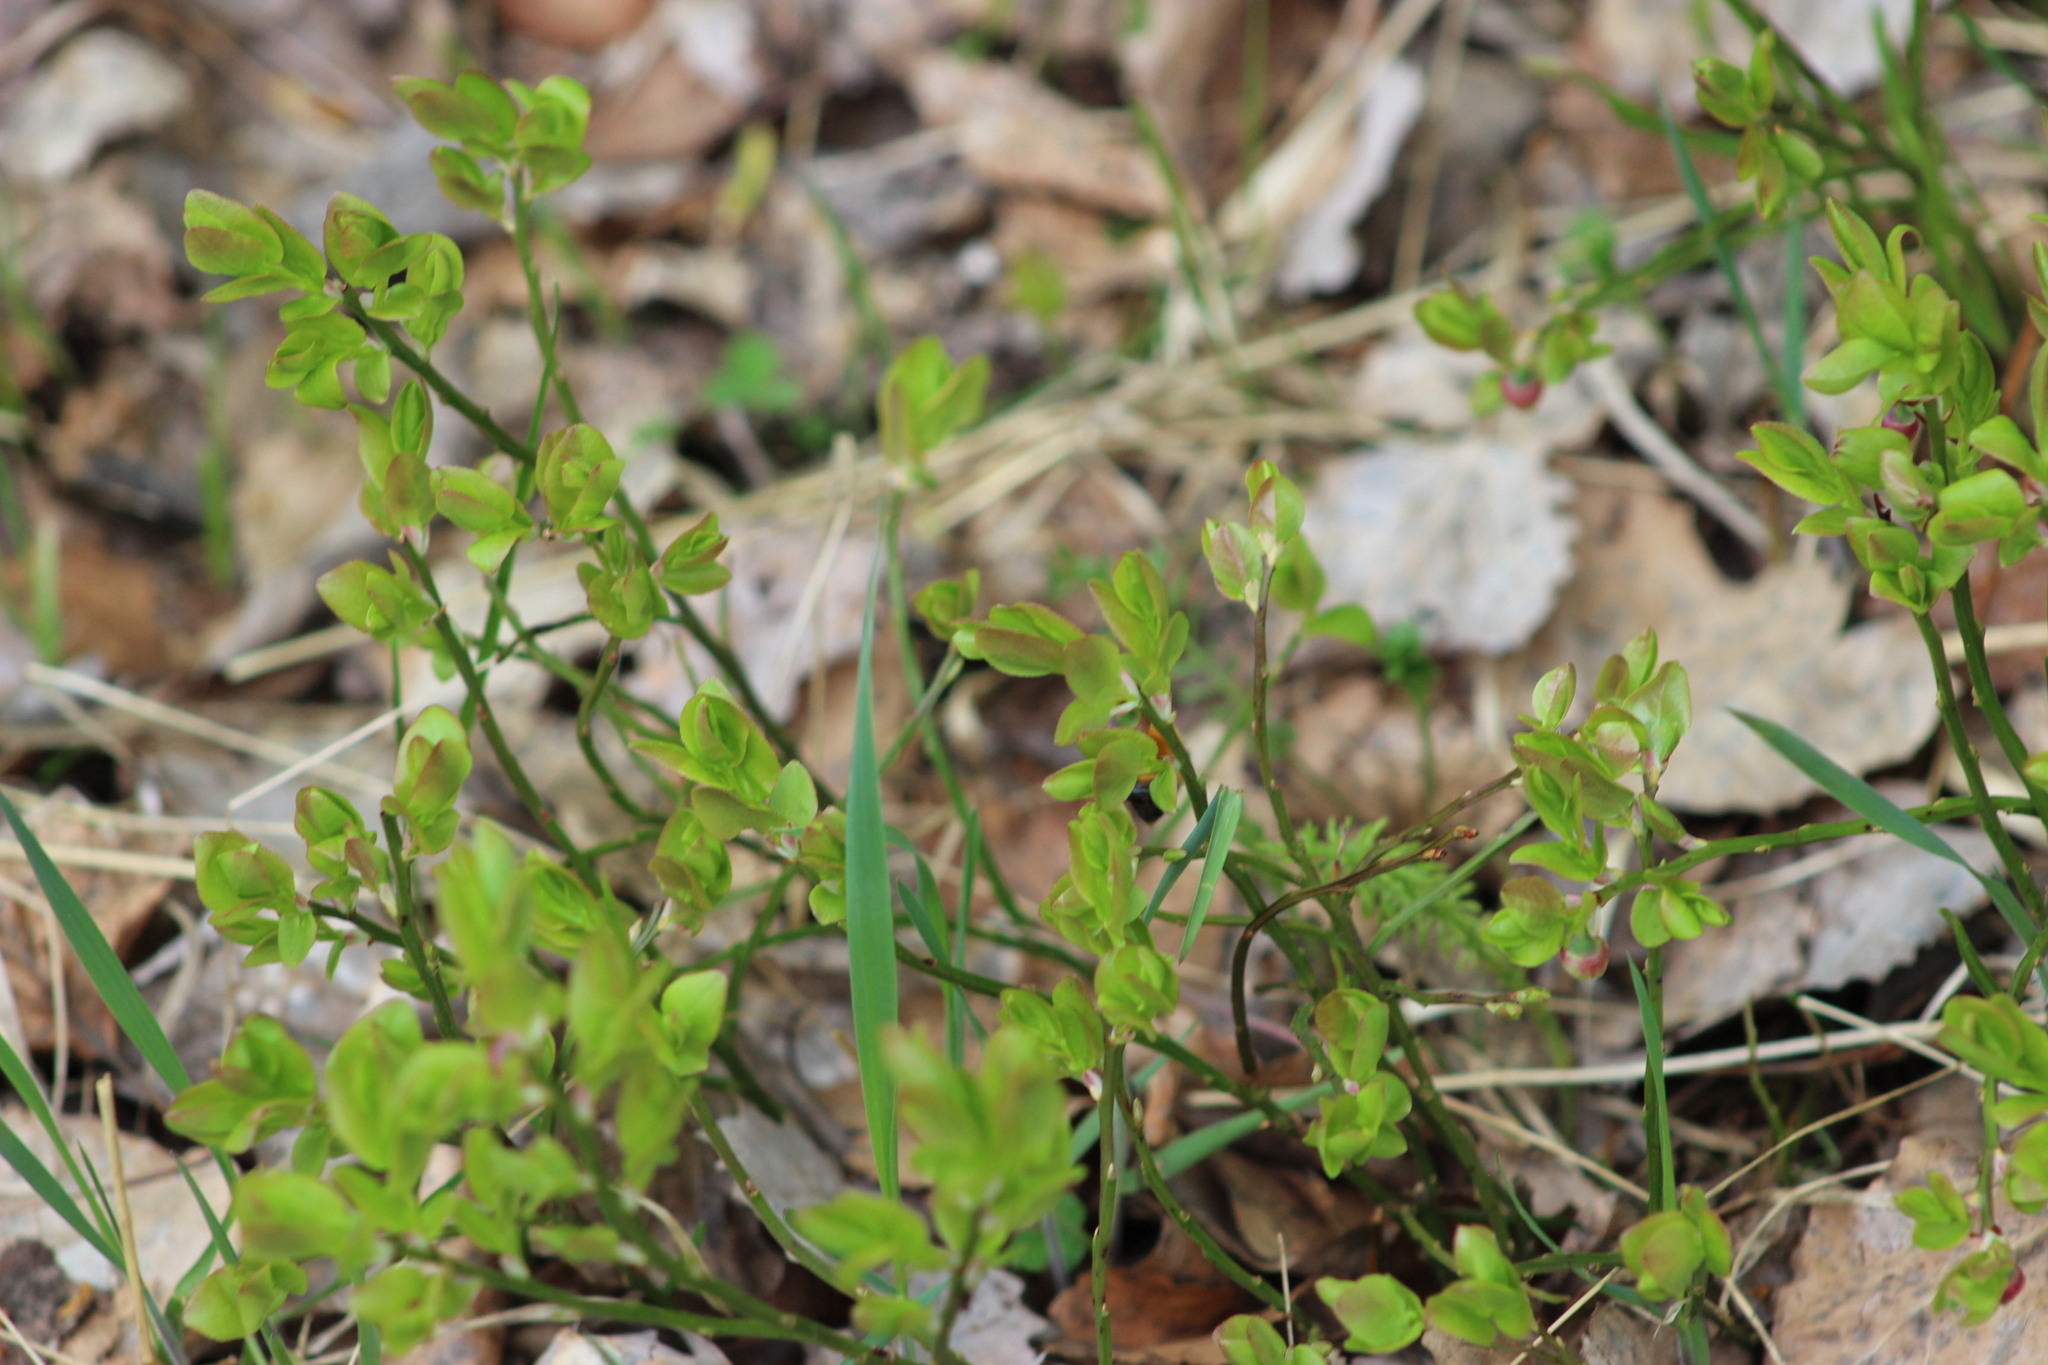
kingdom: Plantae
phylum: Tracheophyta
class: Magnoliopsida
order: Ericales
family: Ericaceae
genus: Vaccinium
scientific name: Vaccinium myrtillus
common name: Bilberry
